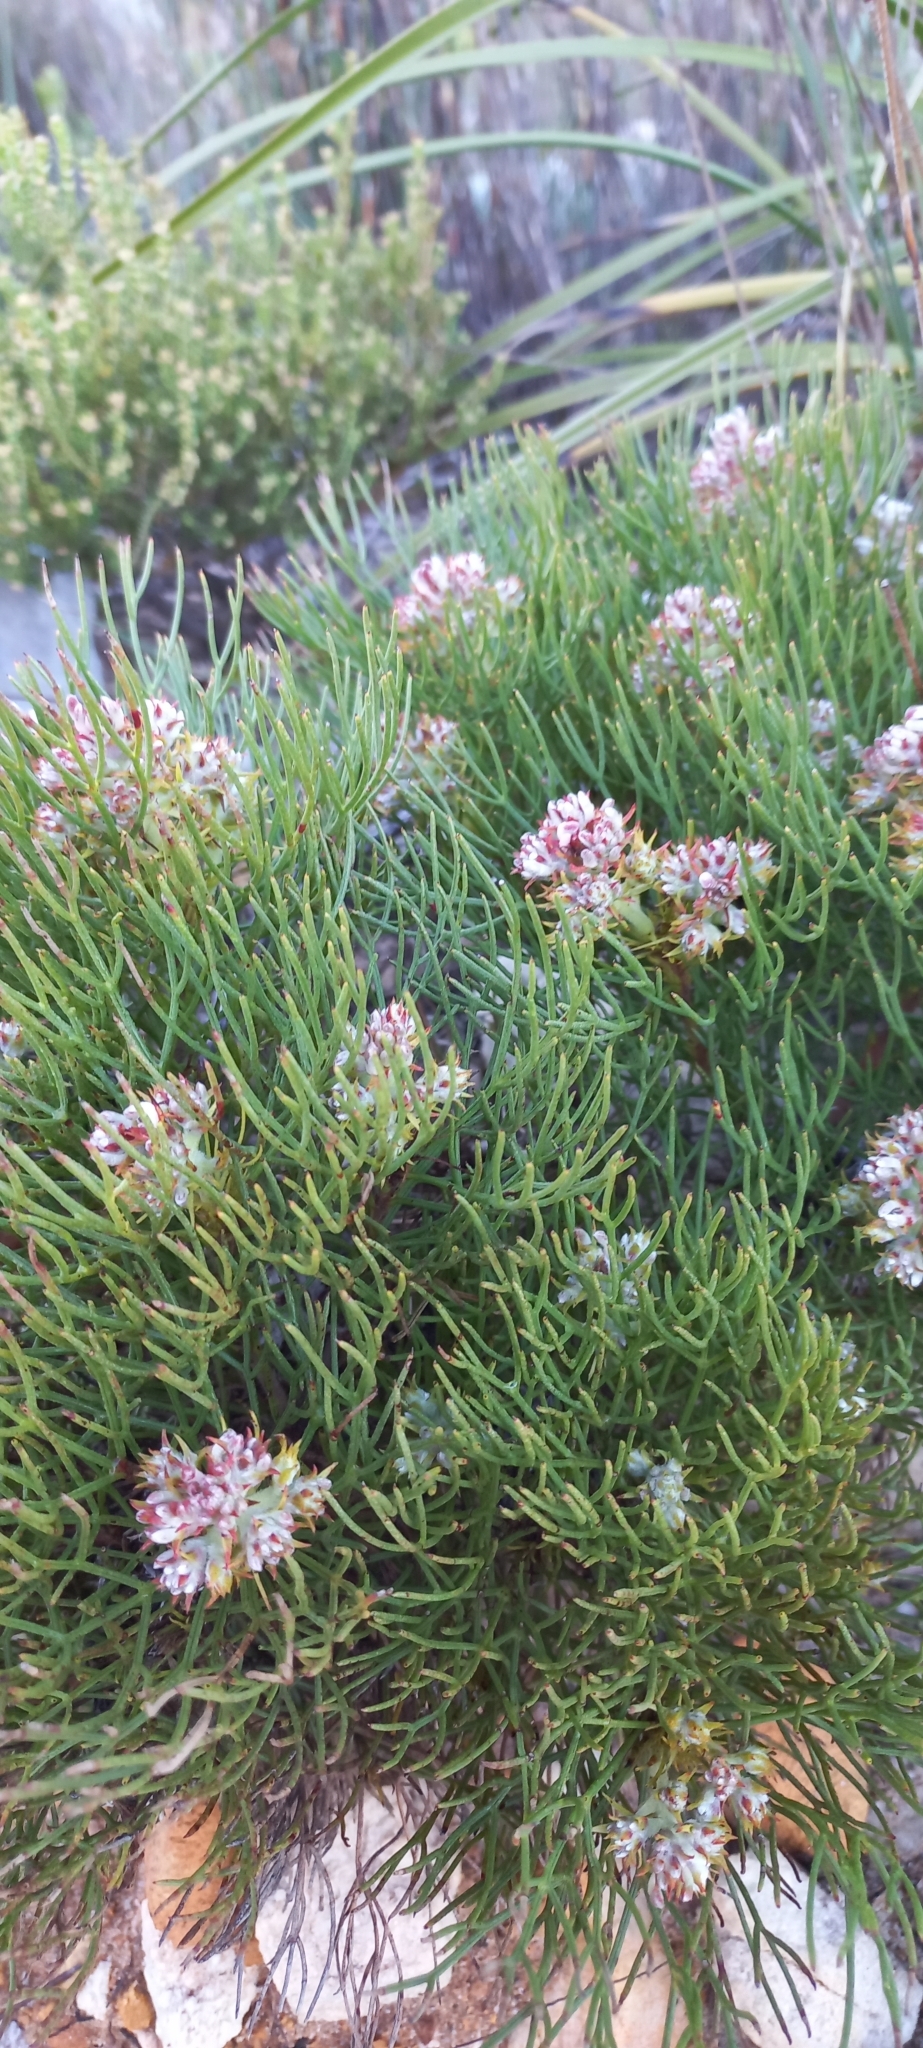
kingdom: Plantae
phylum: Tracheophyta
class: Magnoliopsida
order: Proteales
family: Proteaceae
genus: Serruria
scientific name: Serruria ascendens
